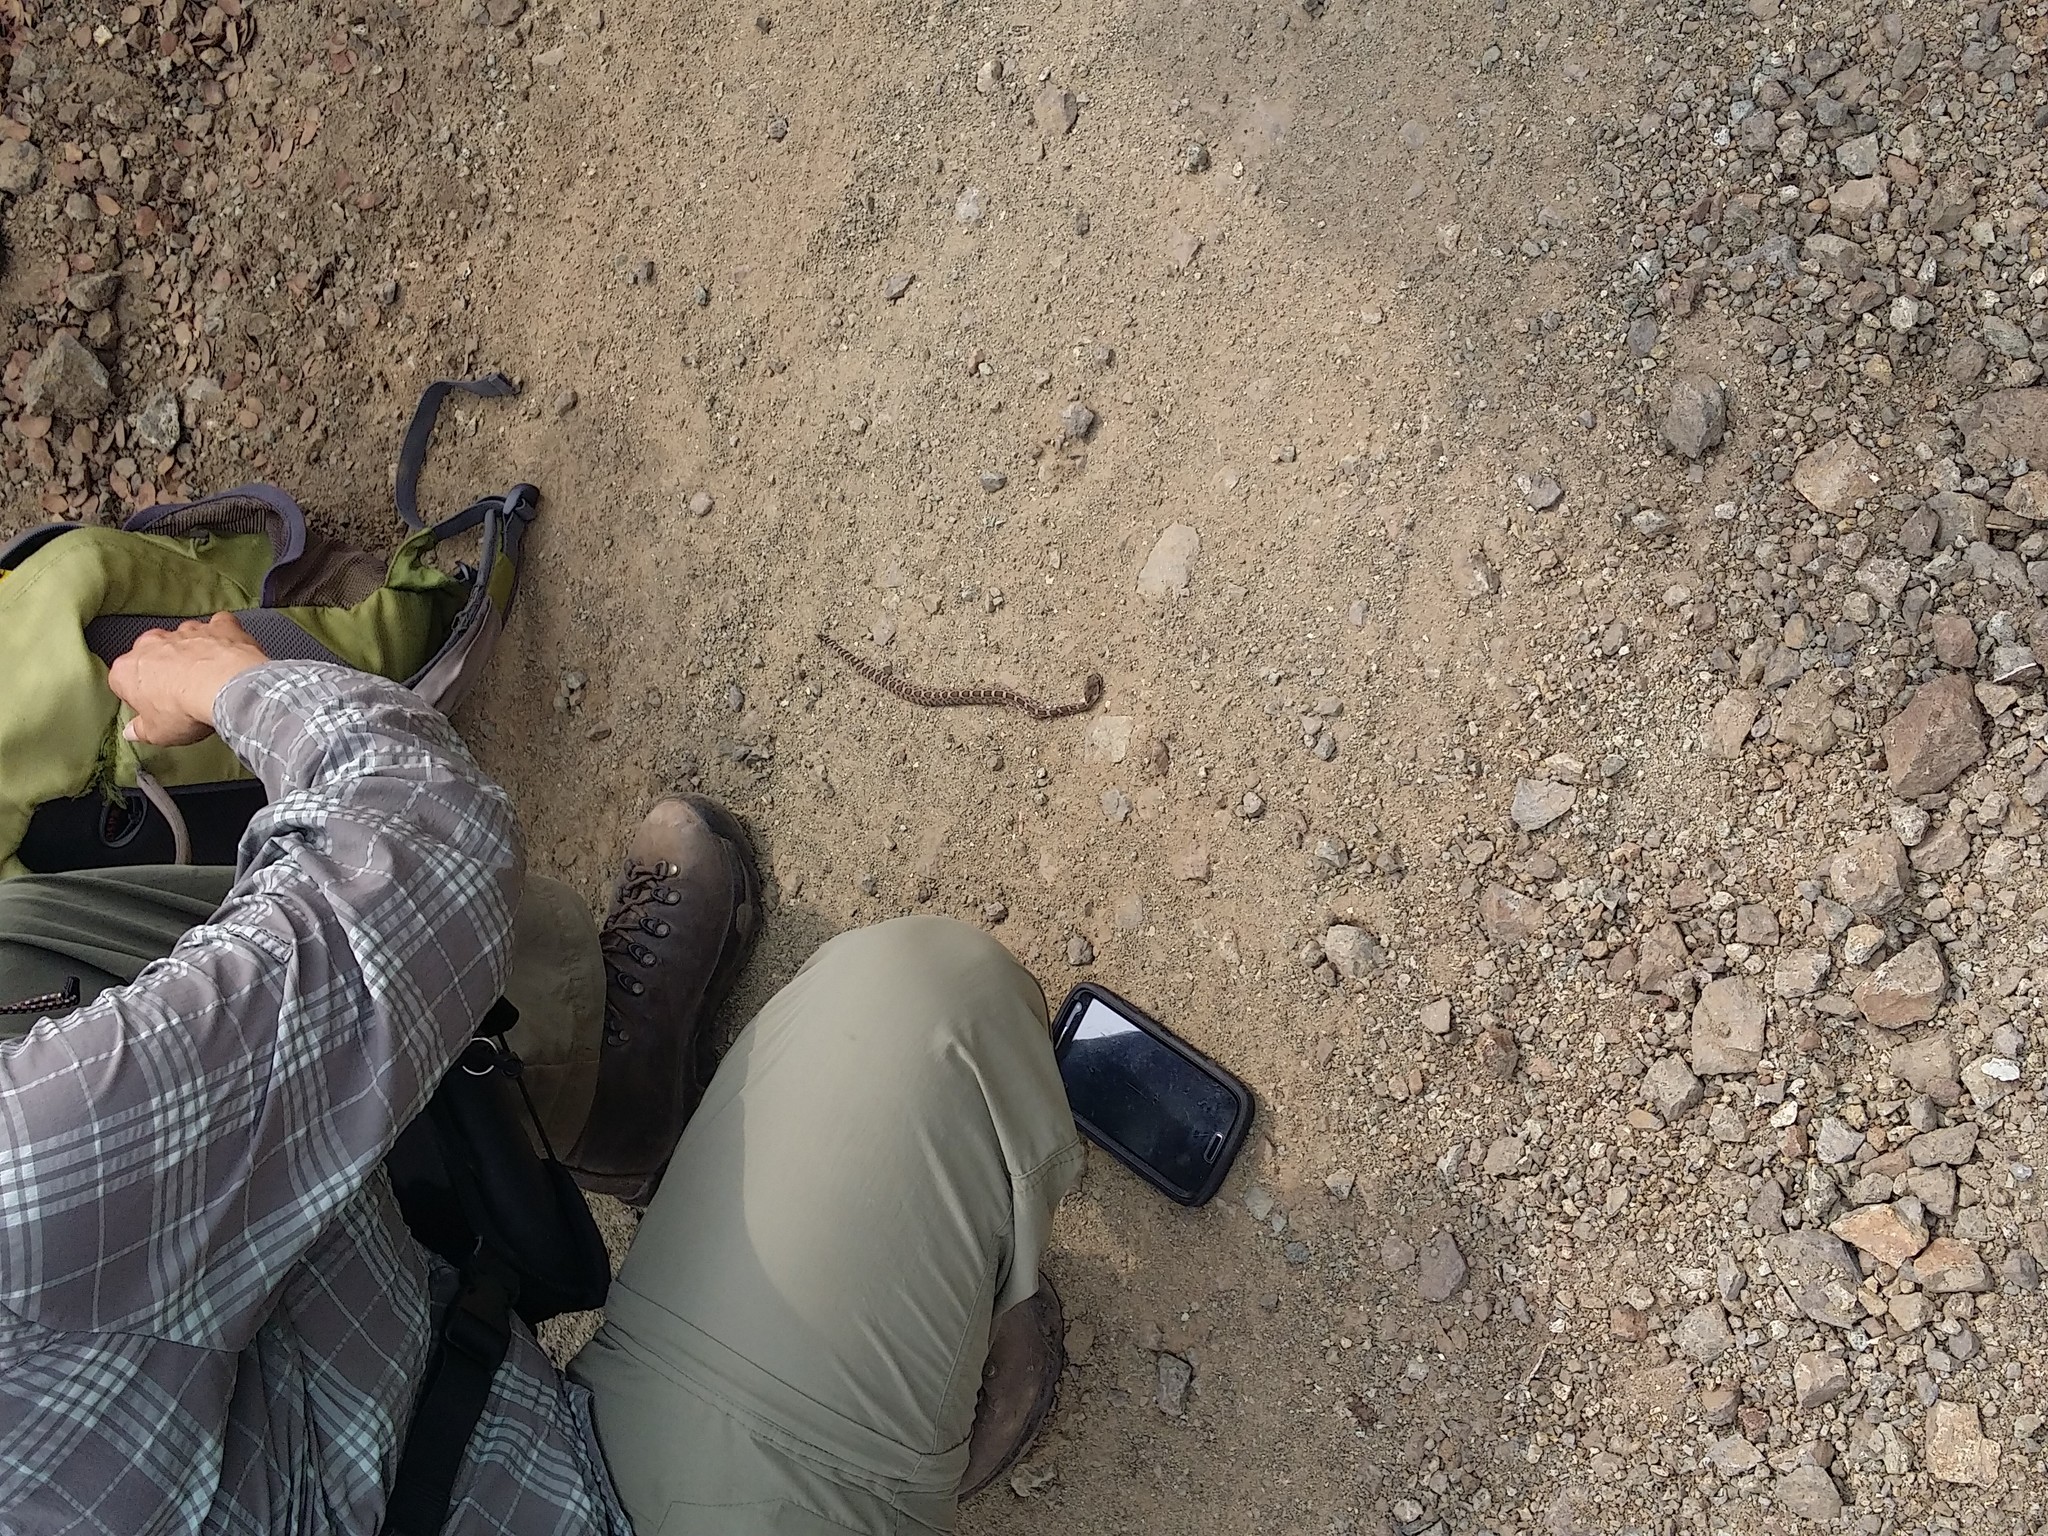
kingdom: Animalia
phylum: Chordata
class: Squamata
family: Viperidae
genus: Crotalus
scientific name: Crotalus oreganus
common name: Abyssus
